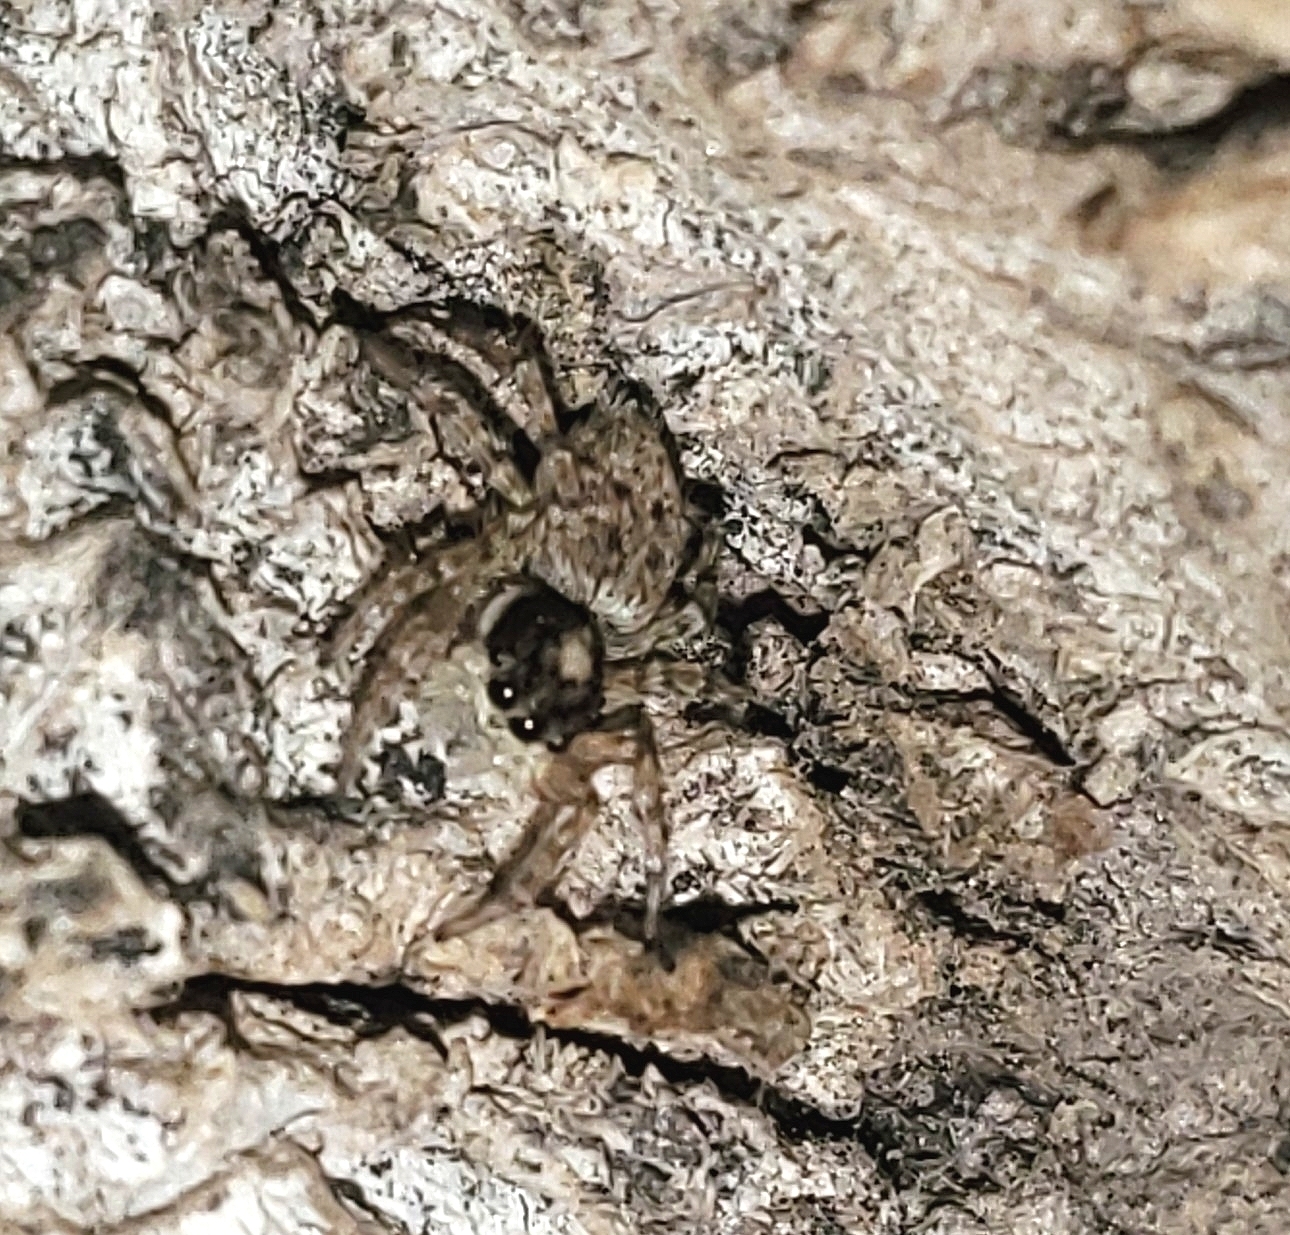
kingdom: Animalia
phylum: Arthropoda
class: Arachnida
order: Araneae
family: Salticidae
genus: Menemerus
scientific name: Menemerus semilimbatus
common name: Jumping spider
